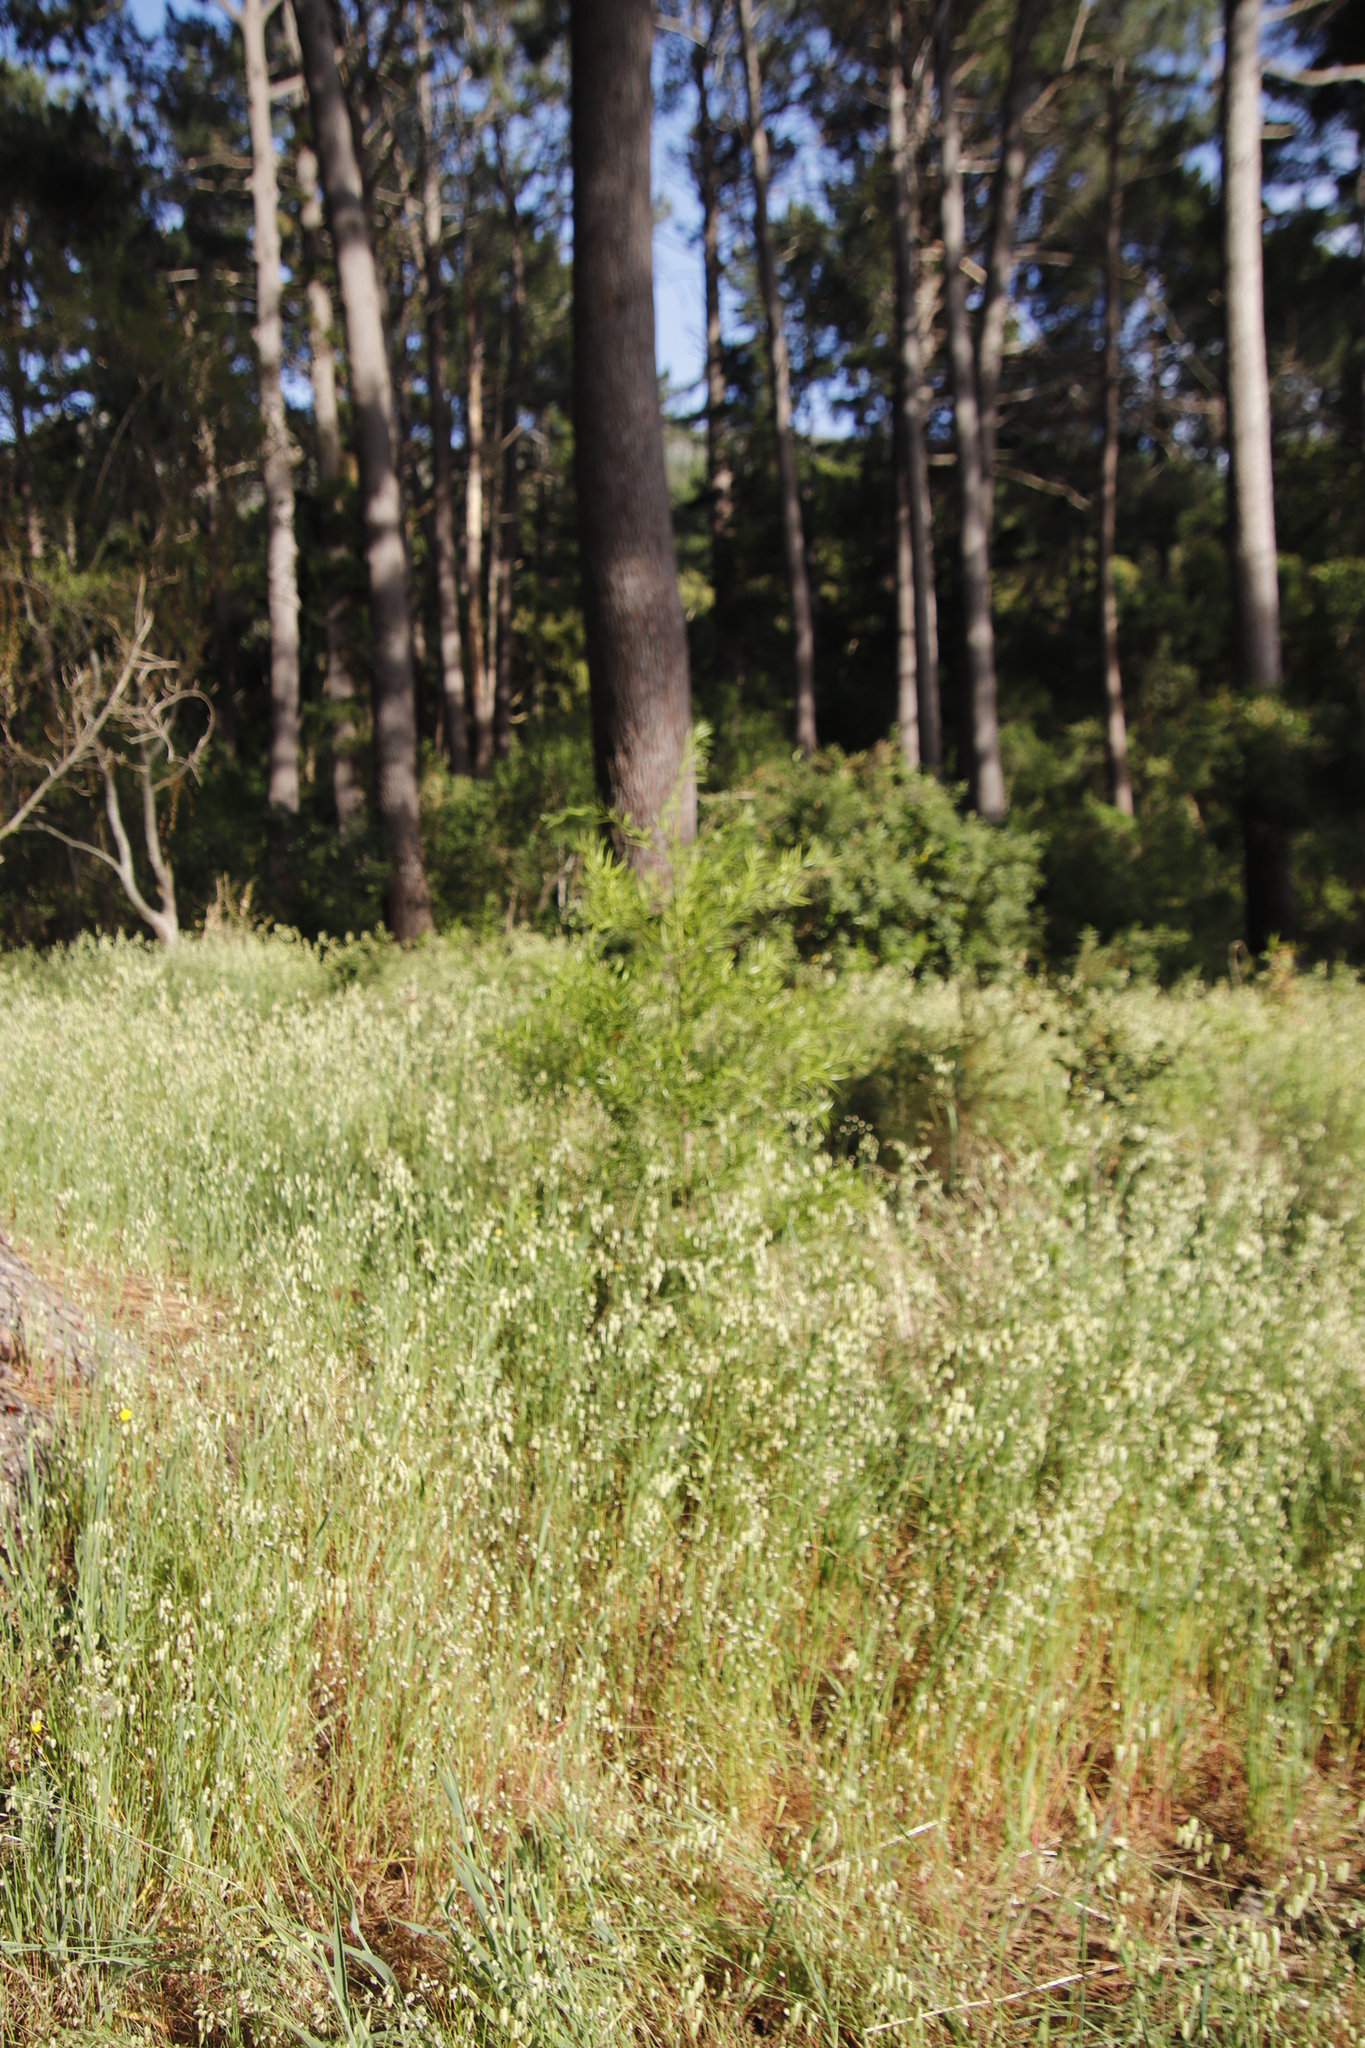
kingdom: Plantae
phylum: Tracheophyta
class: Pinopsida
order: Pinales
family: Podocarpaceae
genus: Afrocarpus
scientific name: Afrocarpus falcatus
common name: Bastard yellowwood
